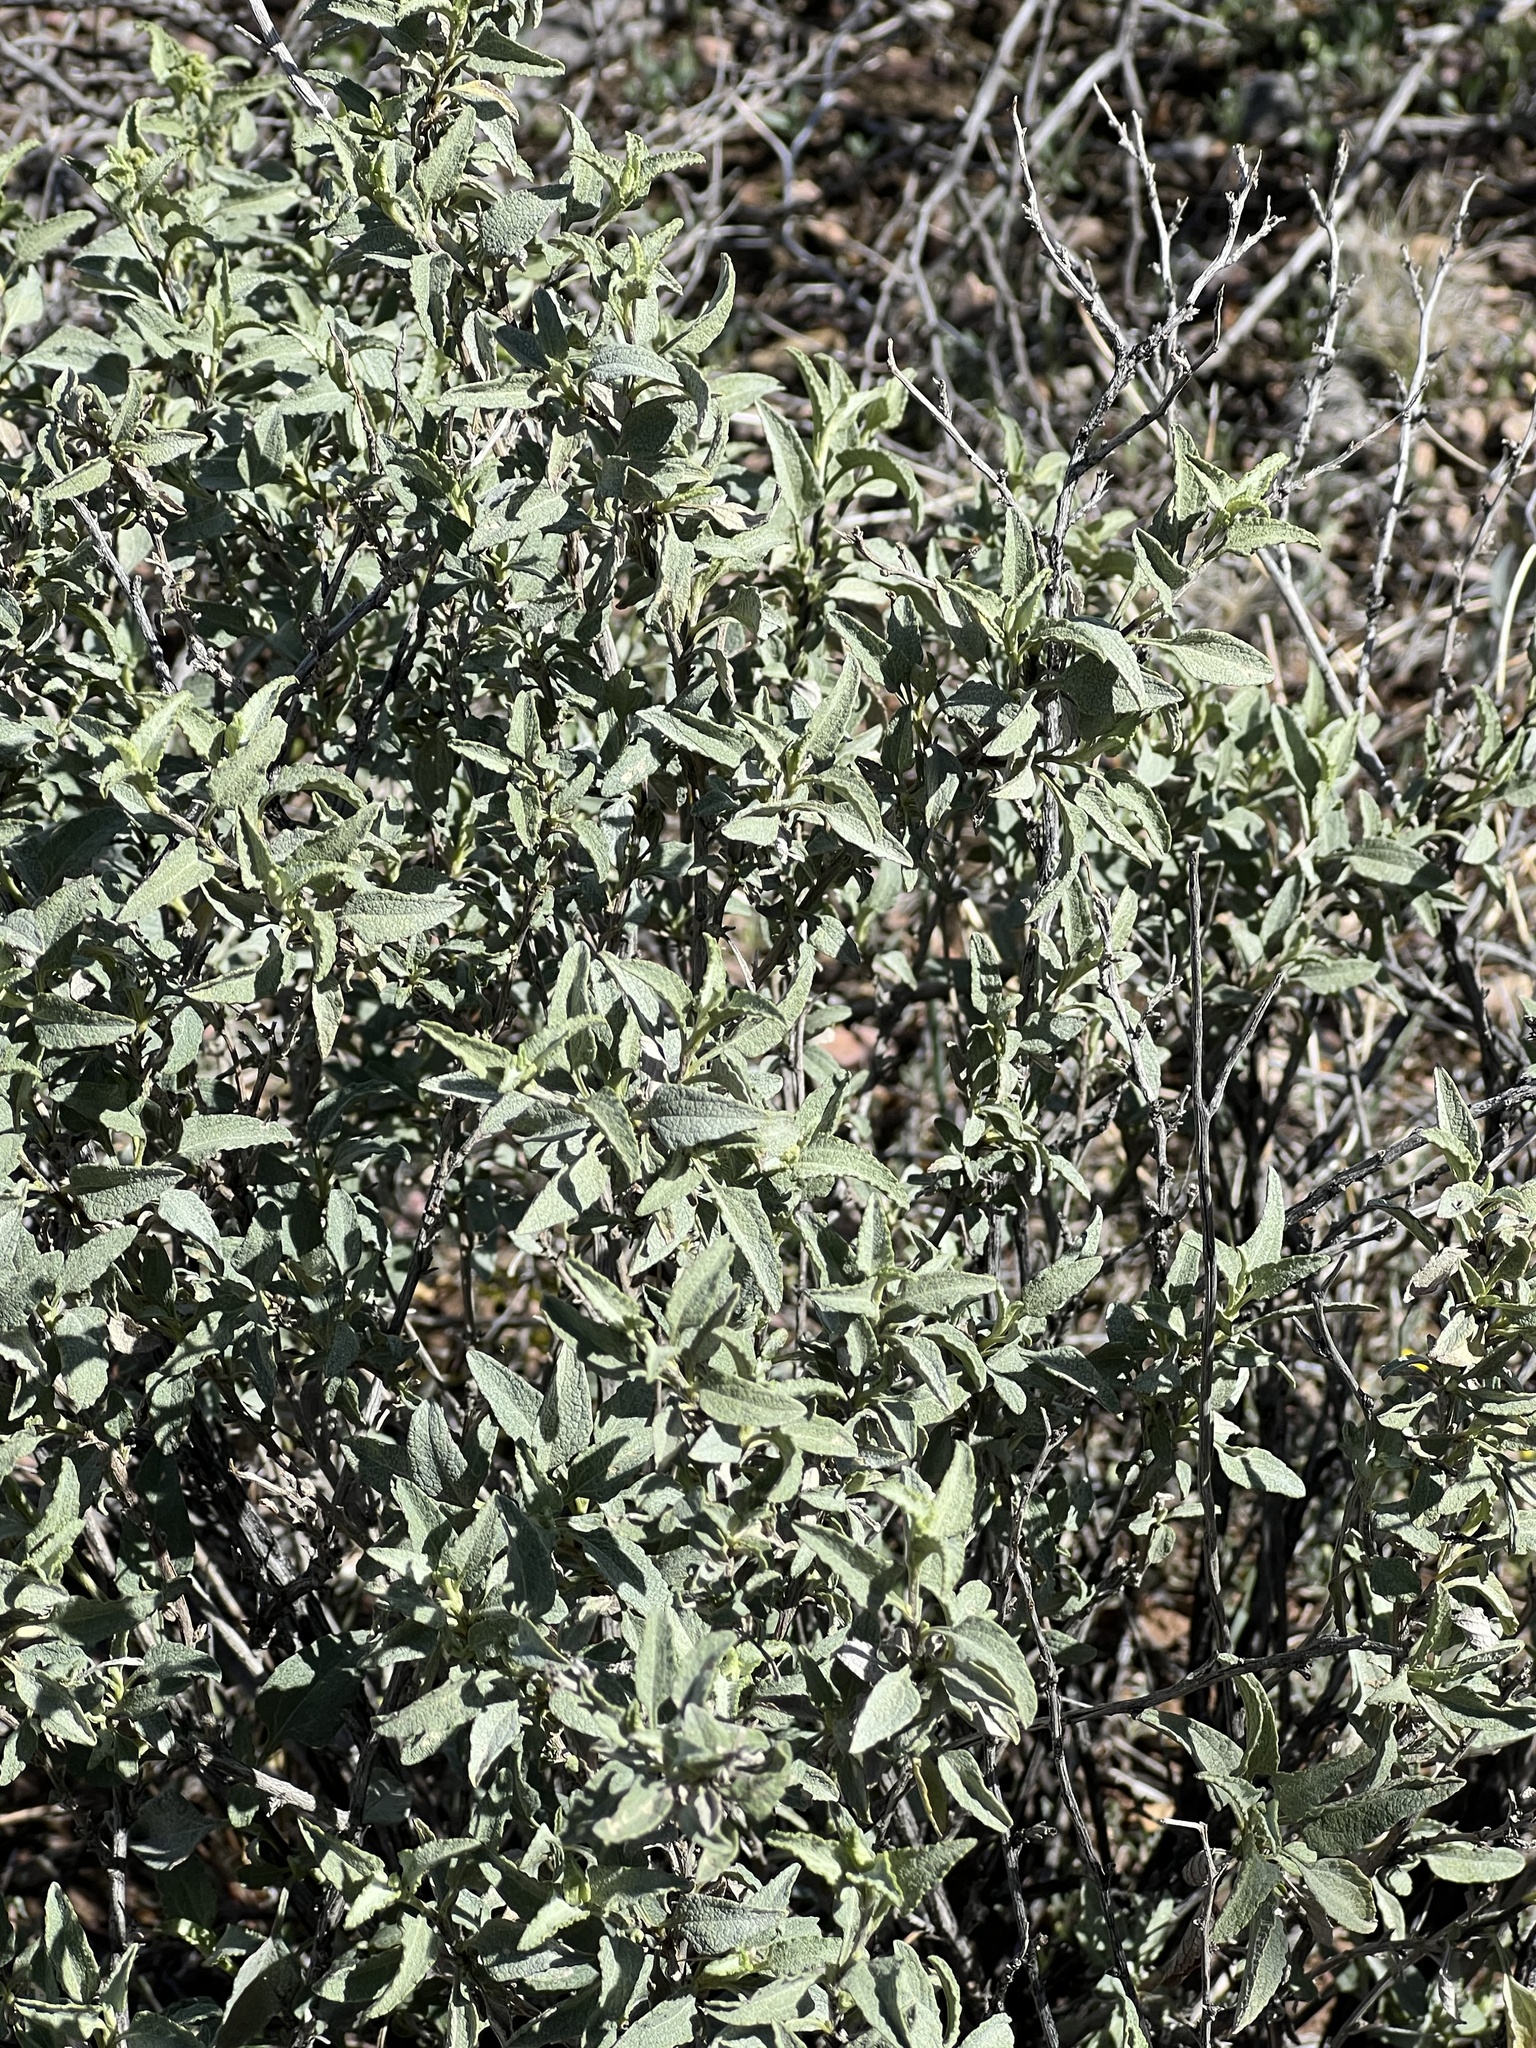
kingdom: Plantae
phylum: Tracheophyta
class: Magnoliopsida
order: Asterales
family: Asteraceae
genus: Ambrosia
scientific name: Ambrosia deltoidea
